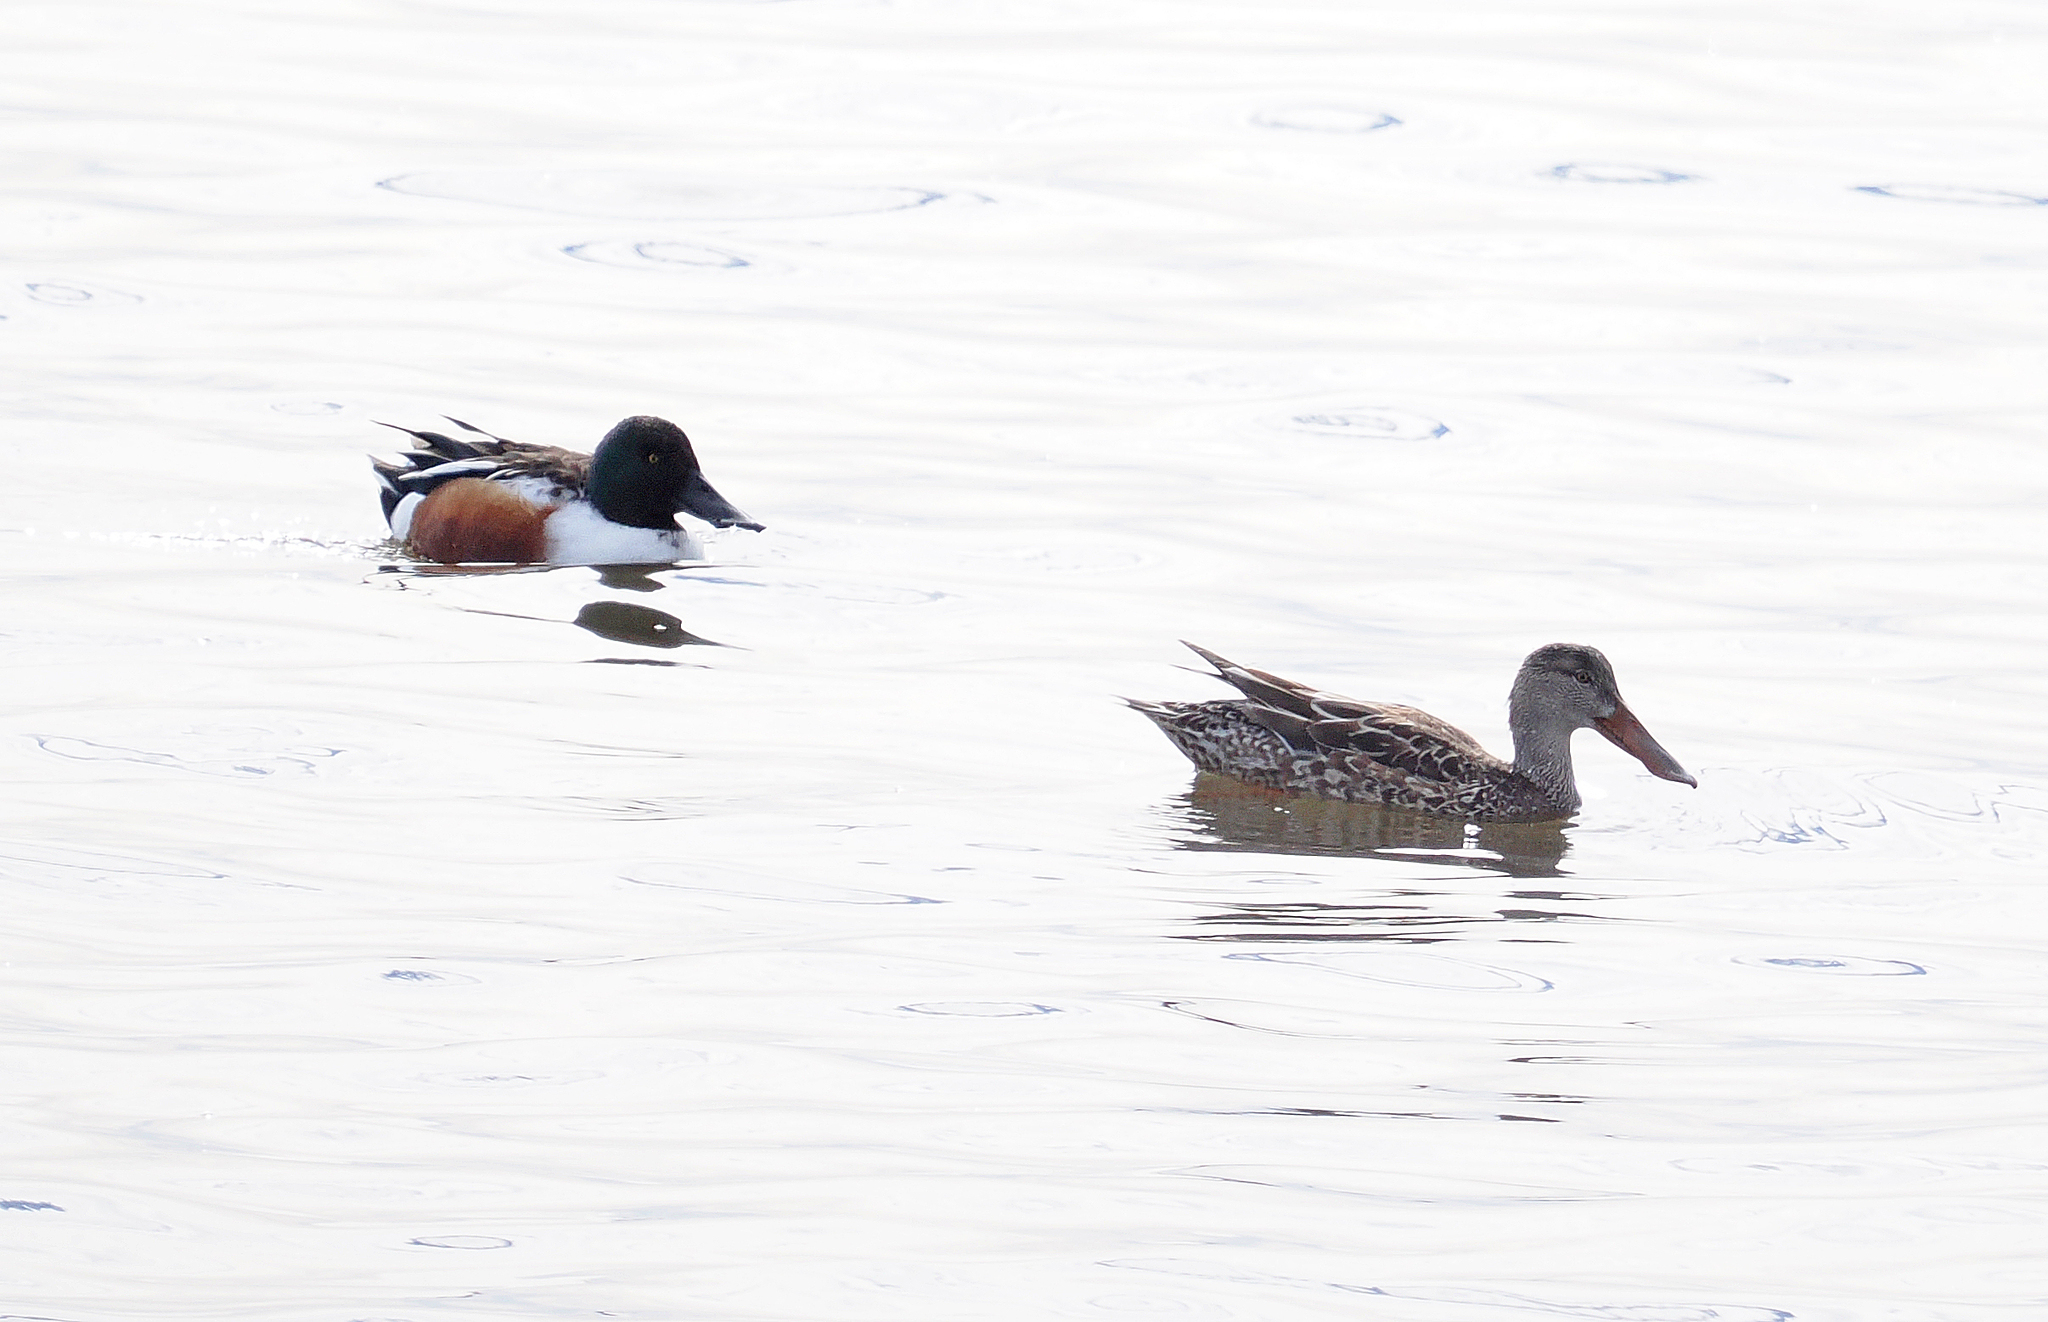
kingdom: Animalia
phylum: Chordata
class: Aves
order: Anseriformes
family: Anatidae
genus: Spatula
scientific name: Spatula clypeata
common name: Northern shoveler
